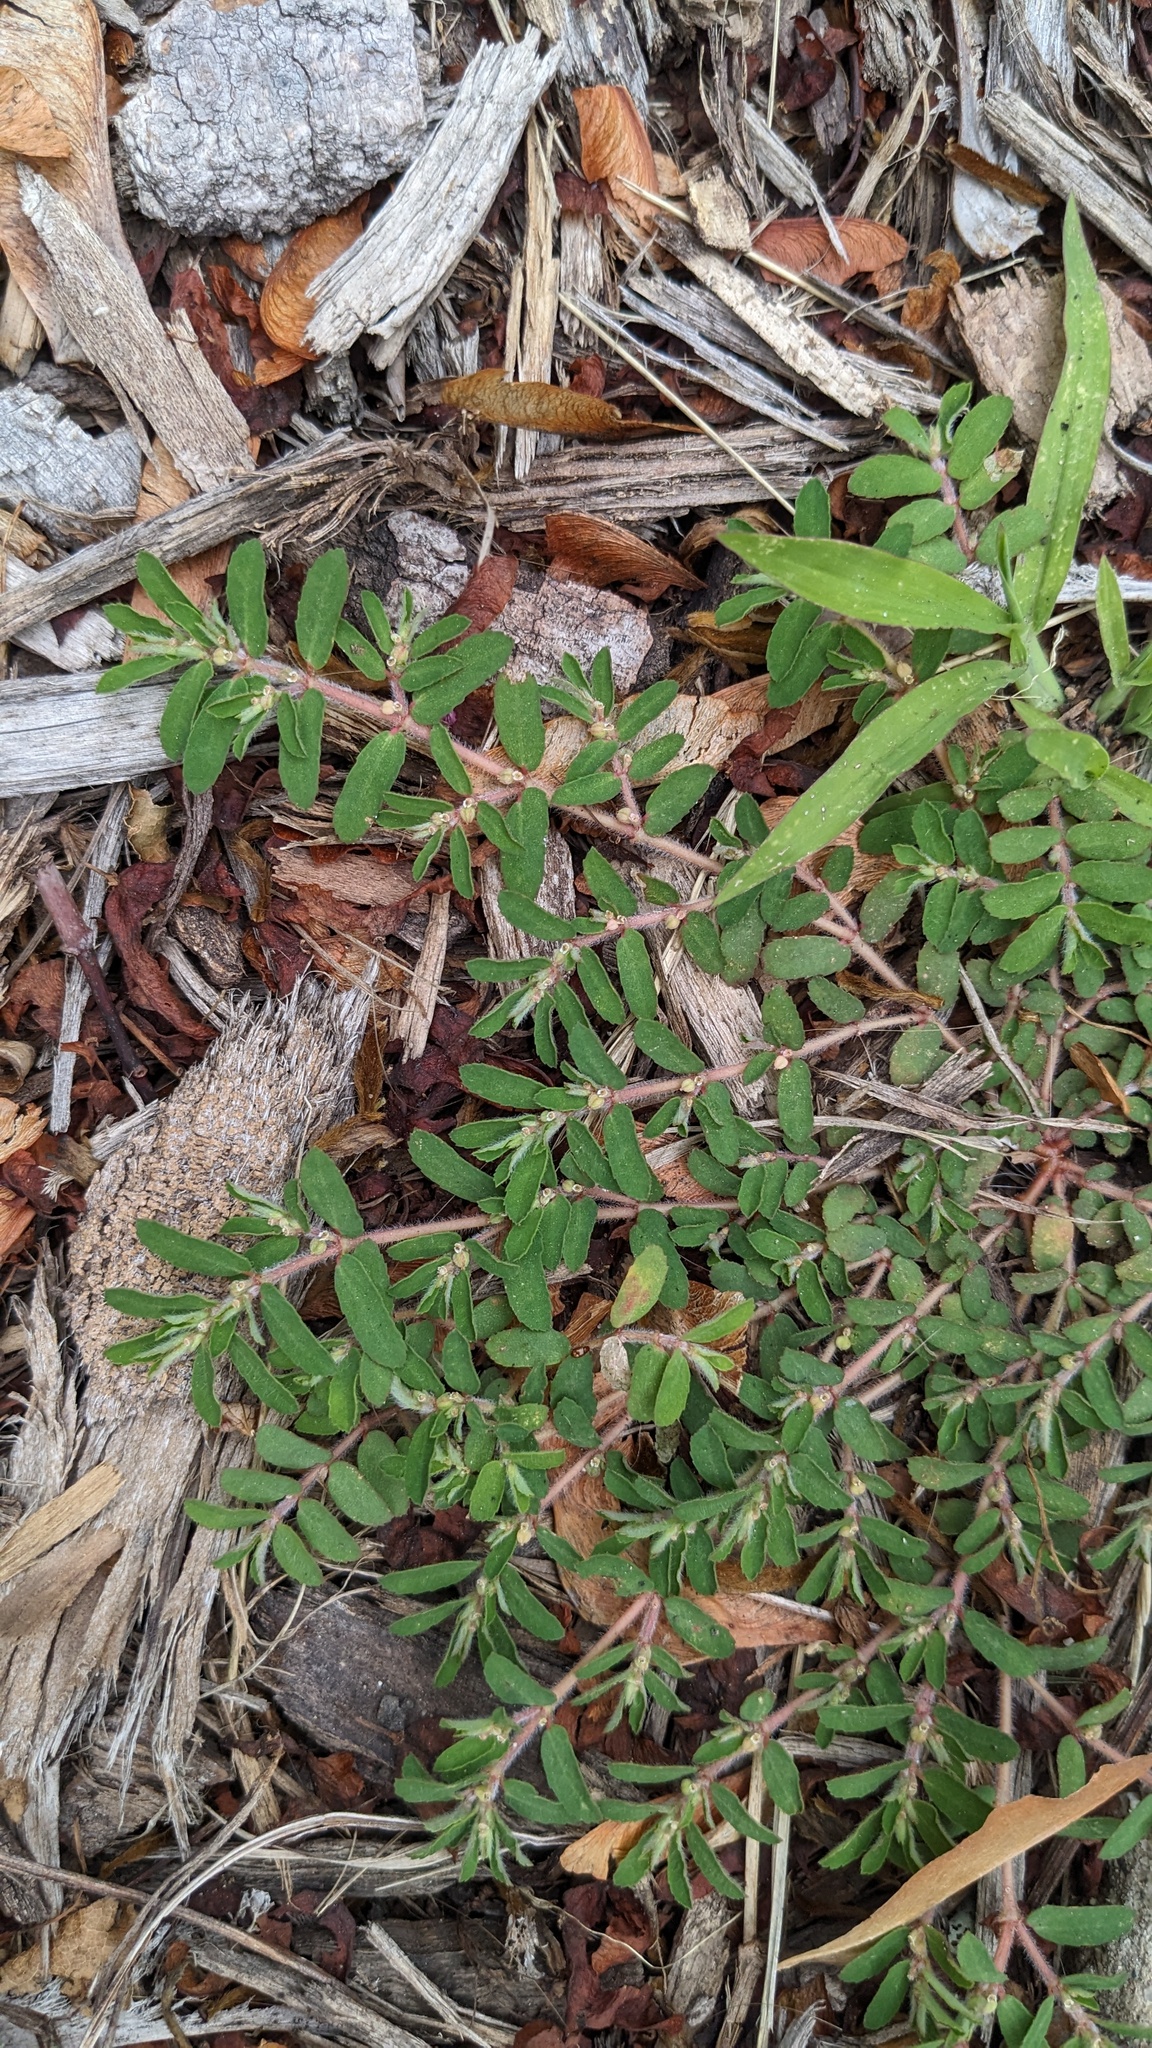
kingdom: Plantae
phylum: Tracheophyta
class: Magnoliopsida
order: Malpighiales
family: Euphorbiaceae
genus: Euphorbia
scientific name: Euphorbia maculata
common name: Spotted spurge
